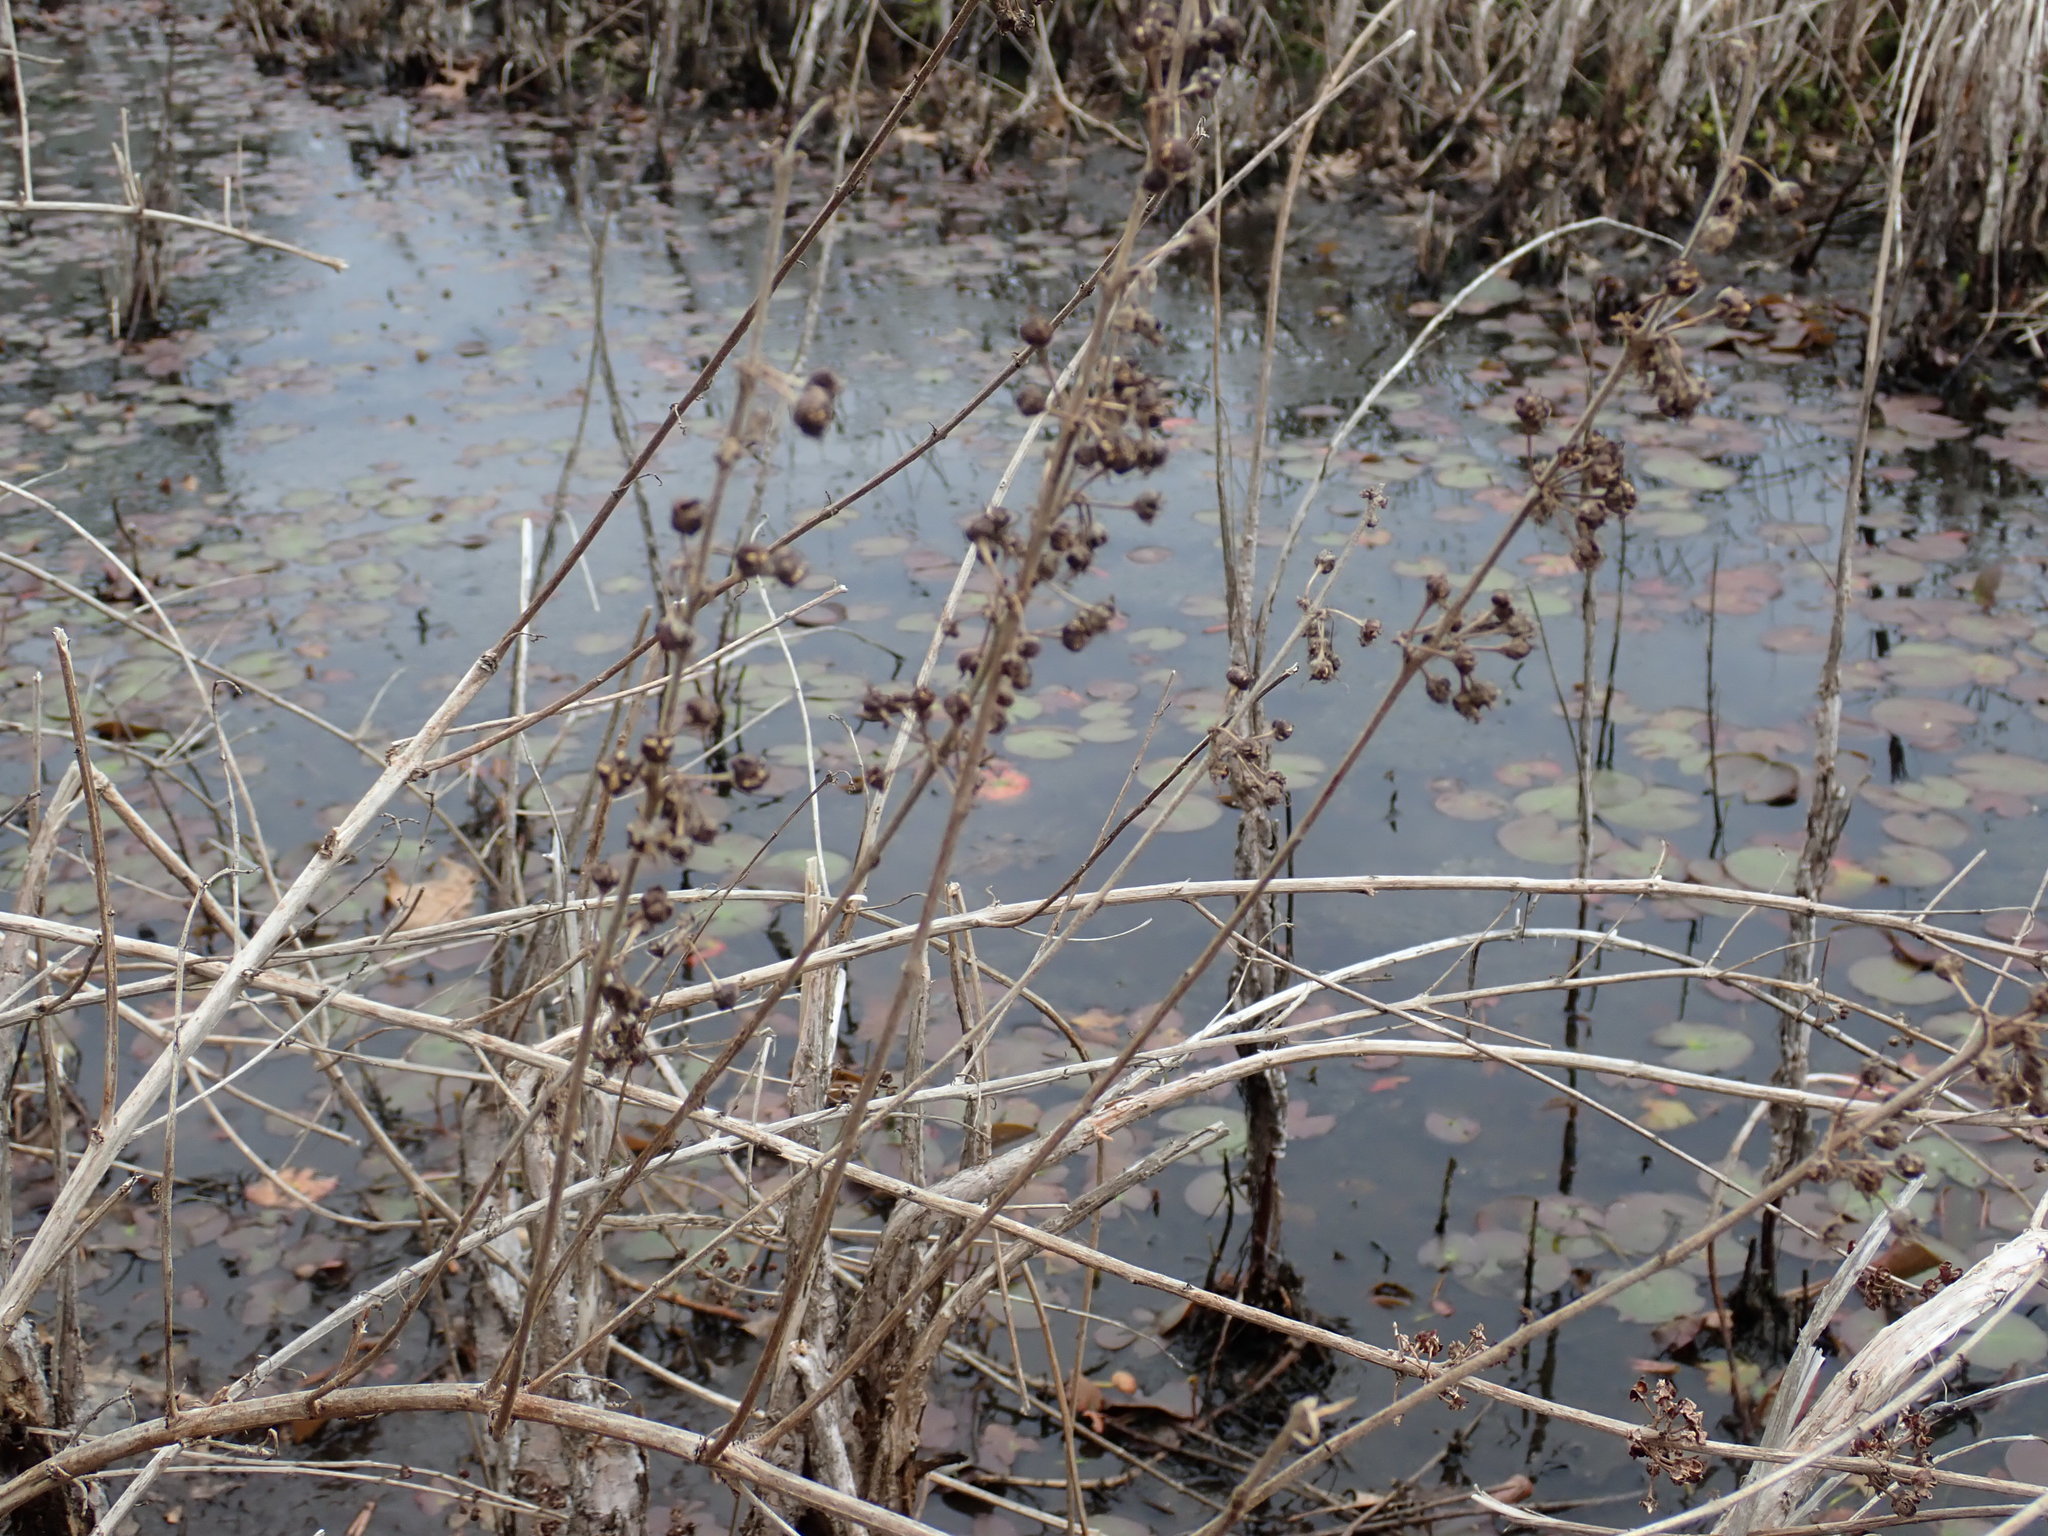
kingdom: Plantae
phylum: Tracheophyta
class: Magnoliopsida
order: Myrtales
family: Lythraceae
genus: Decodon
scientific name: Decodon verticillatus
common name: Hairy swamp loosestrife
